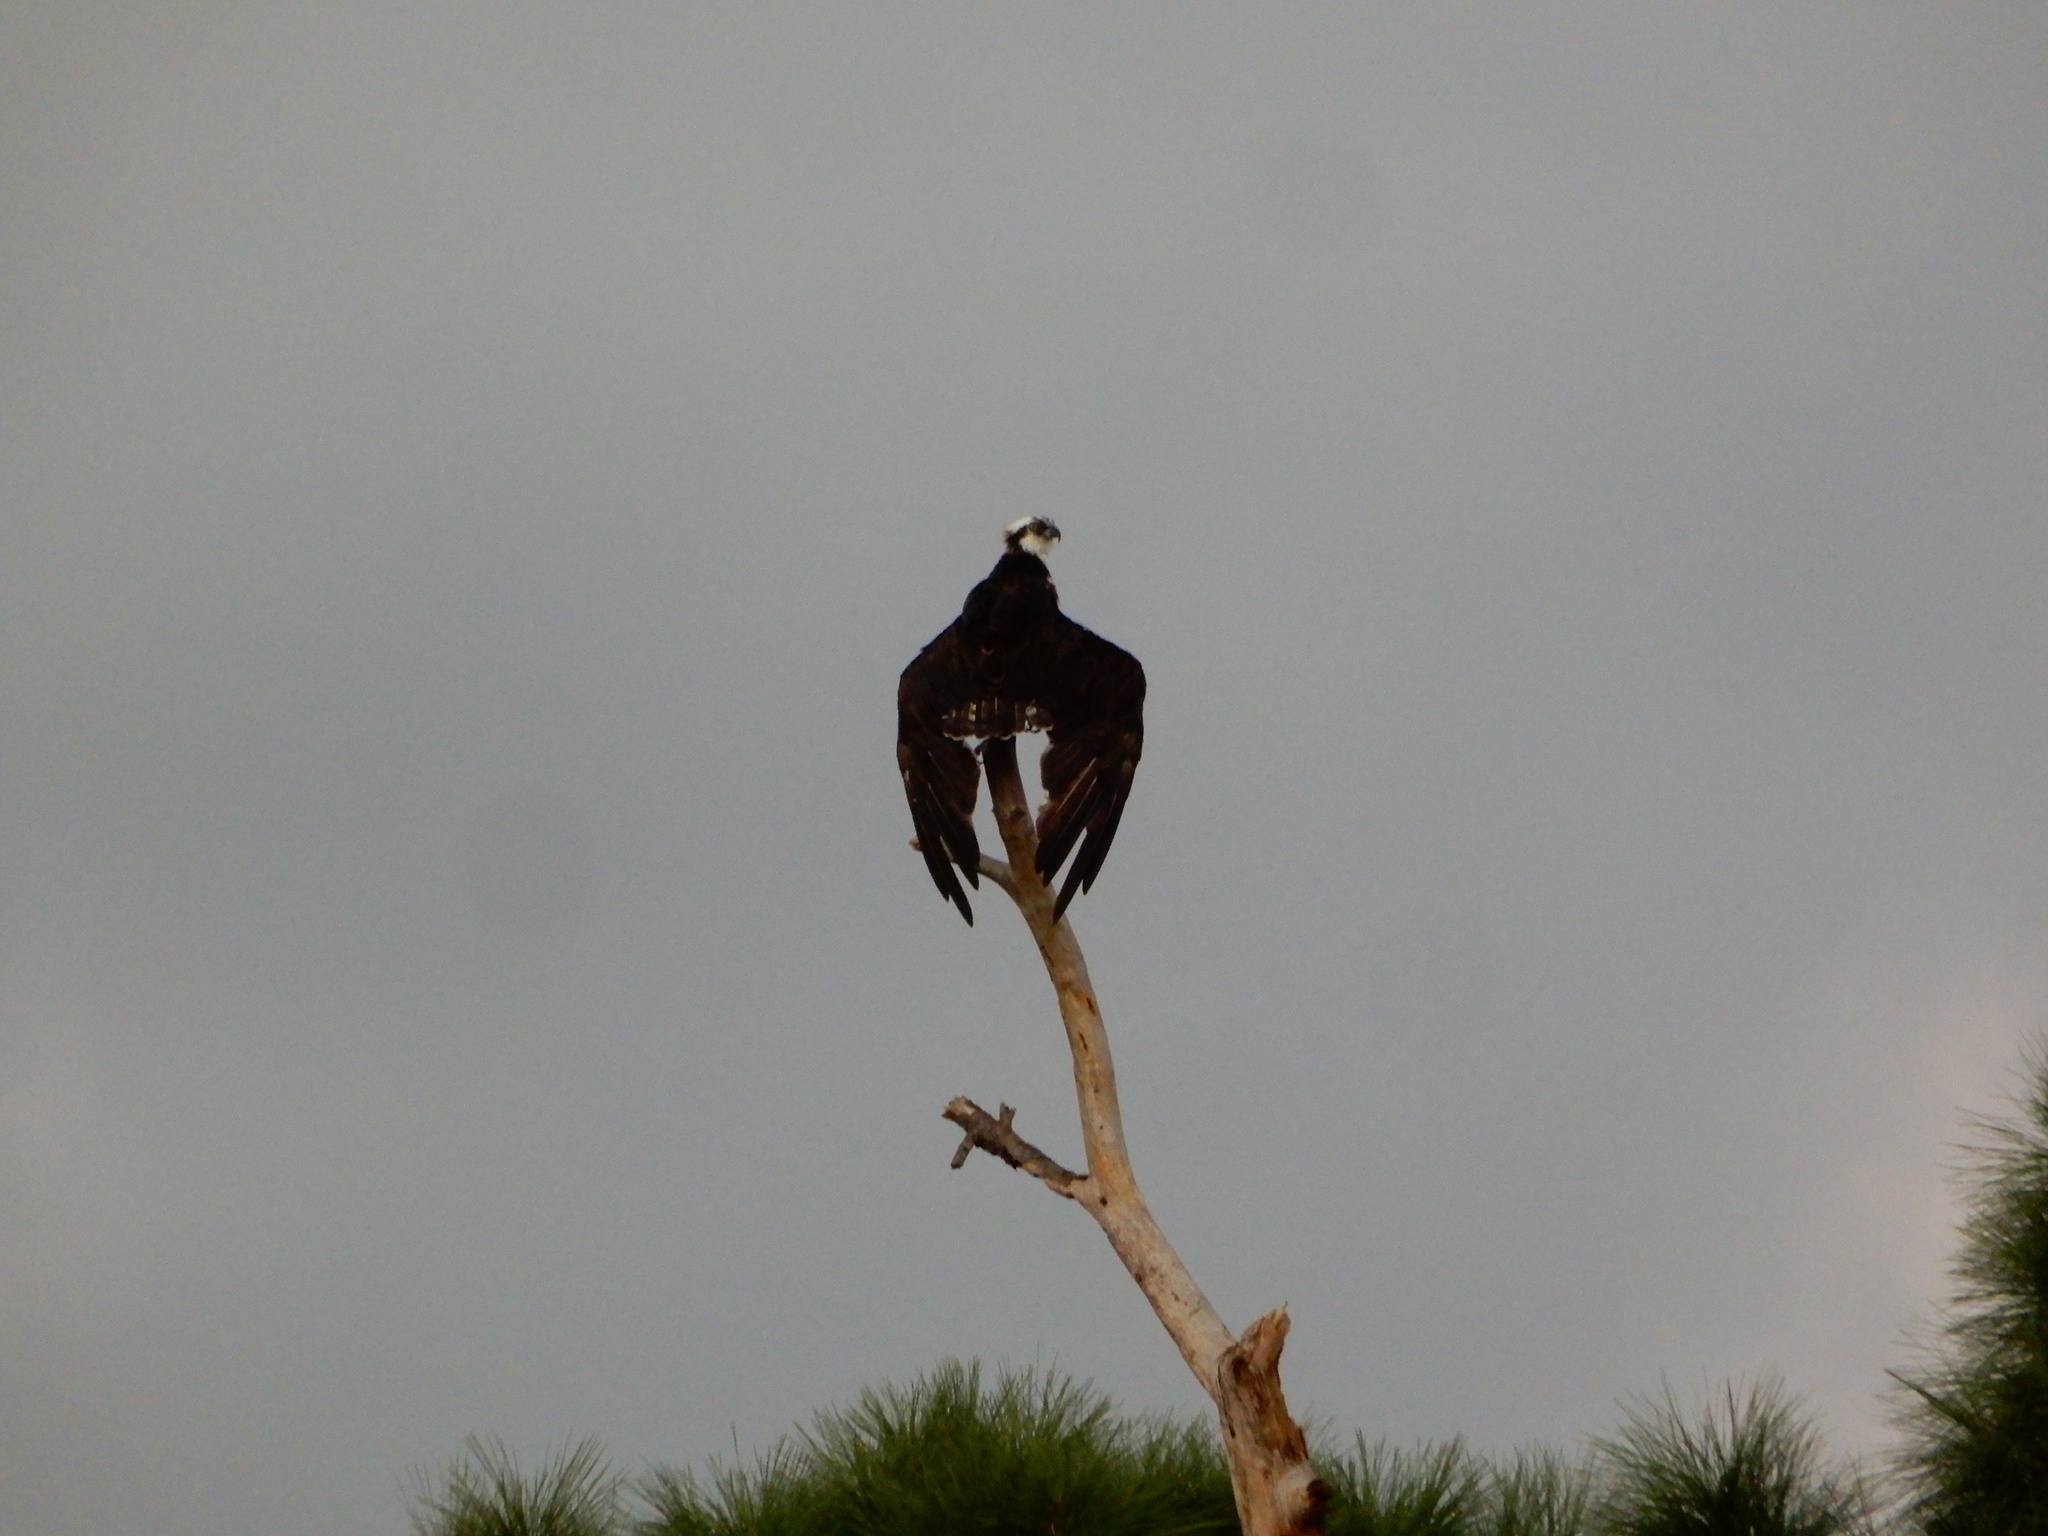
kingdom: Animalia
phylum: Chordata
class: Aves
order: Accipitriformes
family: Pandionidae
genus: Pandion
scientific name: Pandion haliaetus
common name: Osprey
